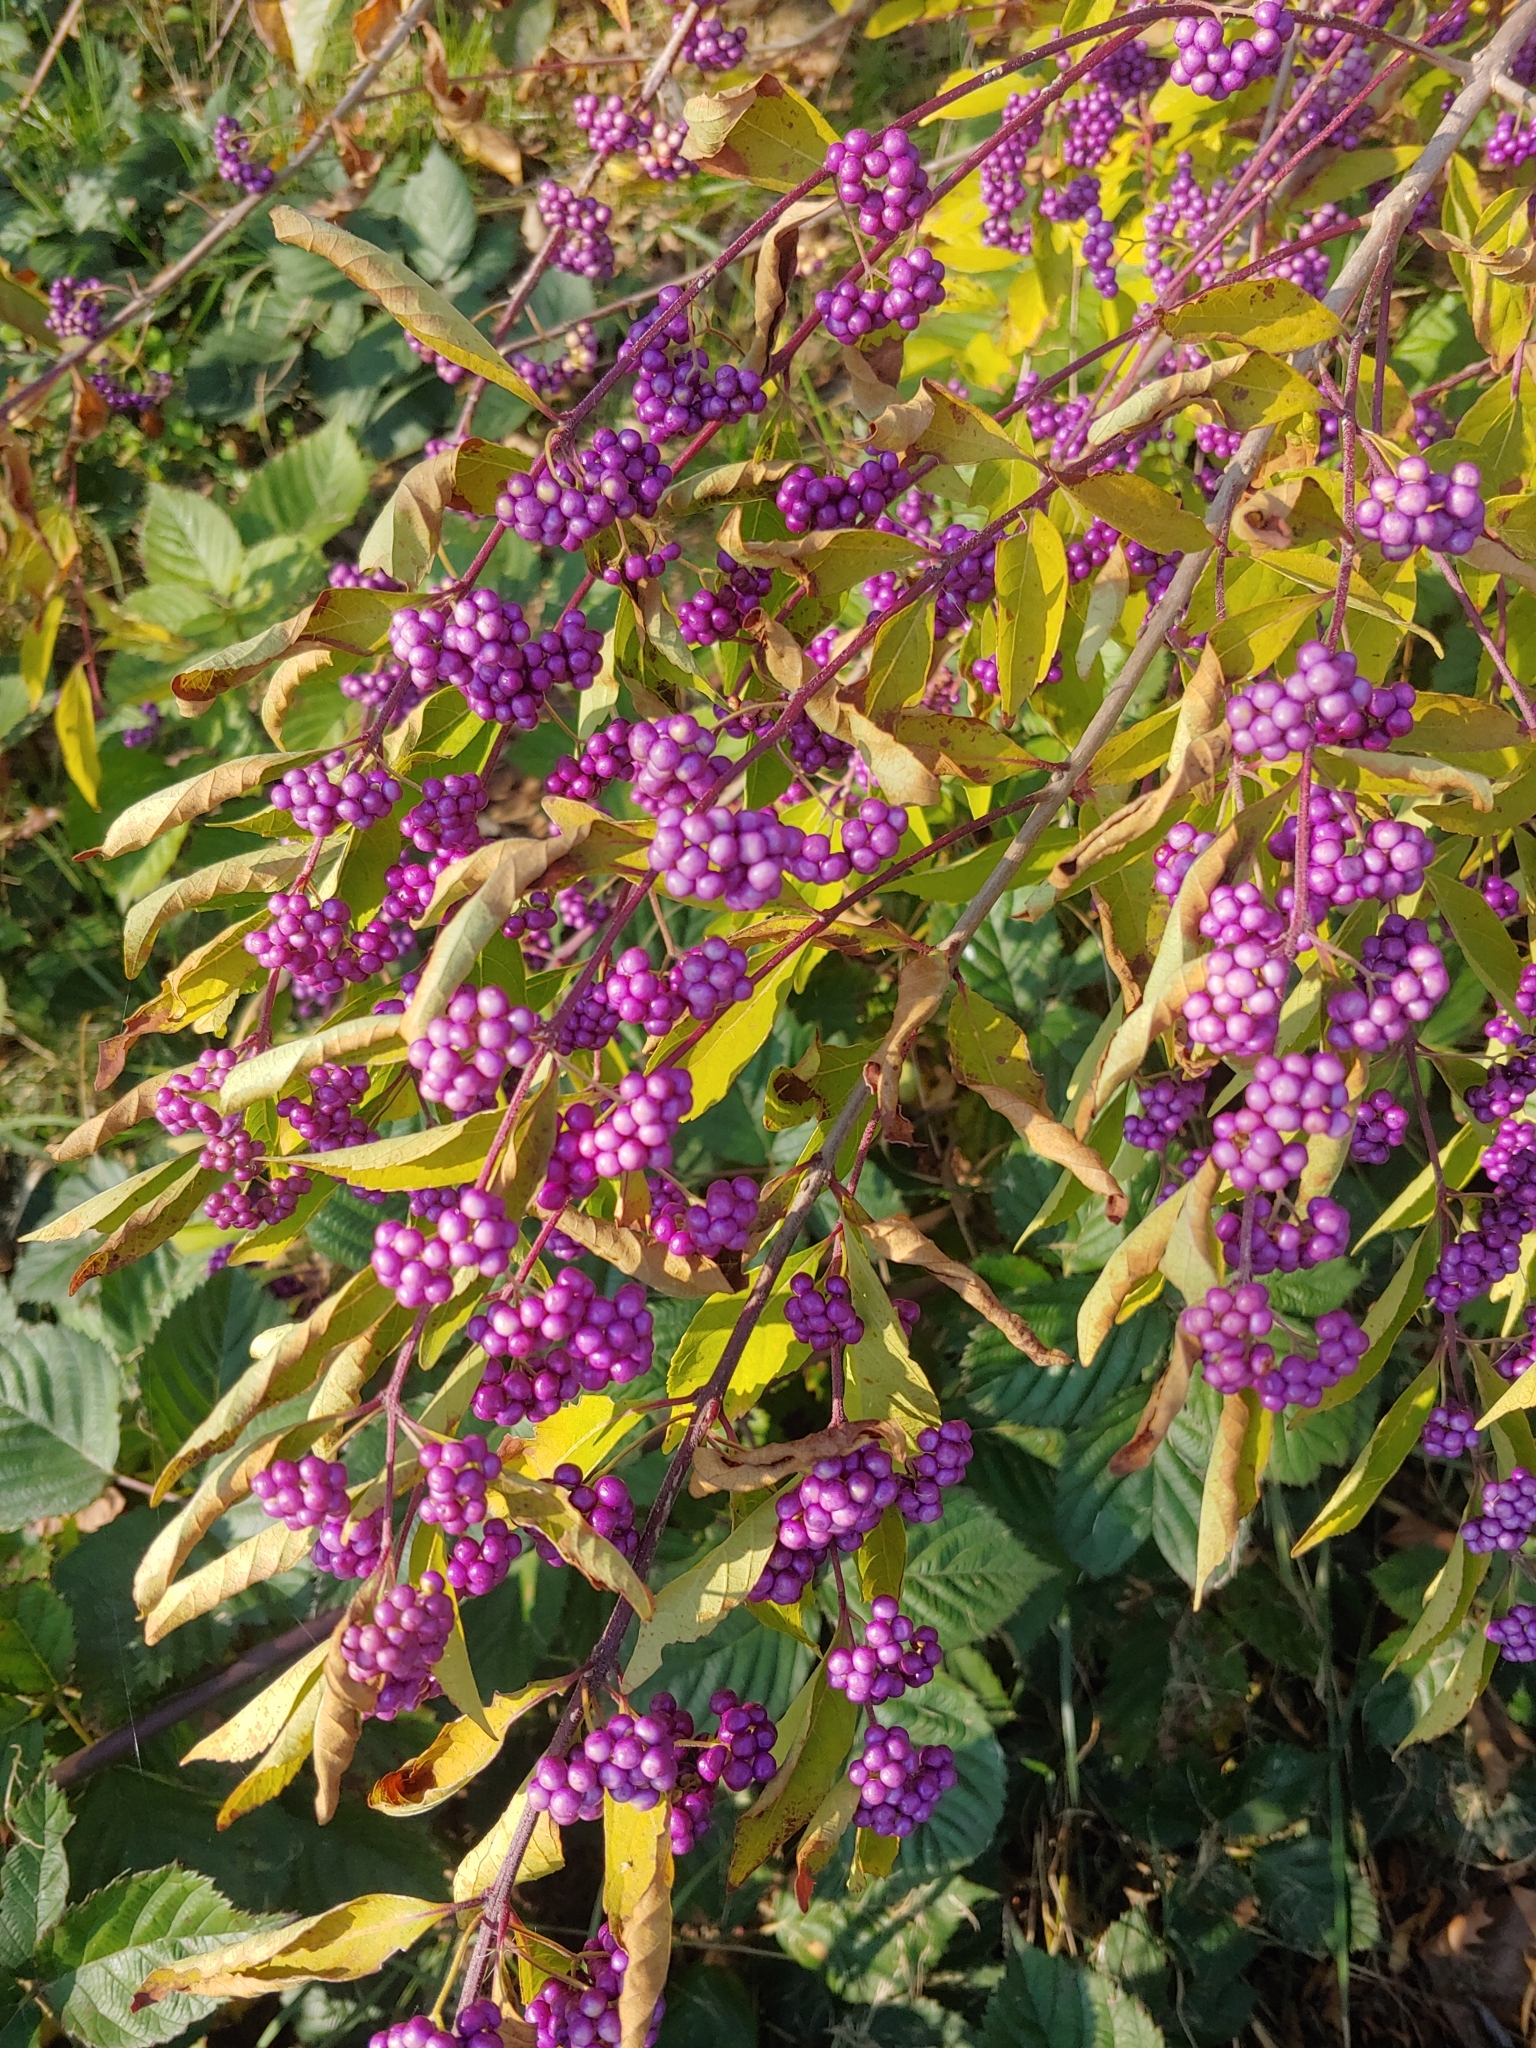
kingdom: Plantae
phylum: Tracheophyta
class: Magnoliopsida
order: Lamiales
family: Lamiaceae
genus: Callicarpa
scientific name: Callicarpa dichotoma
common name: Purple beauty-berry
